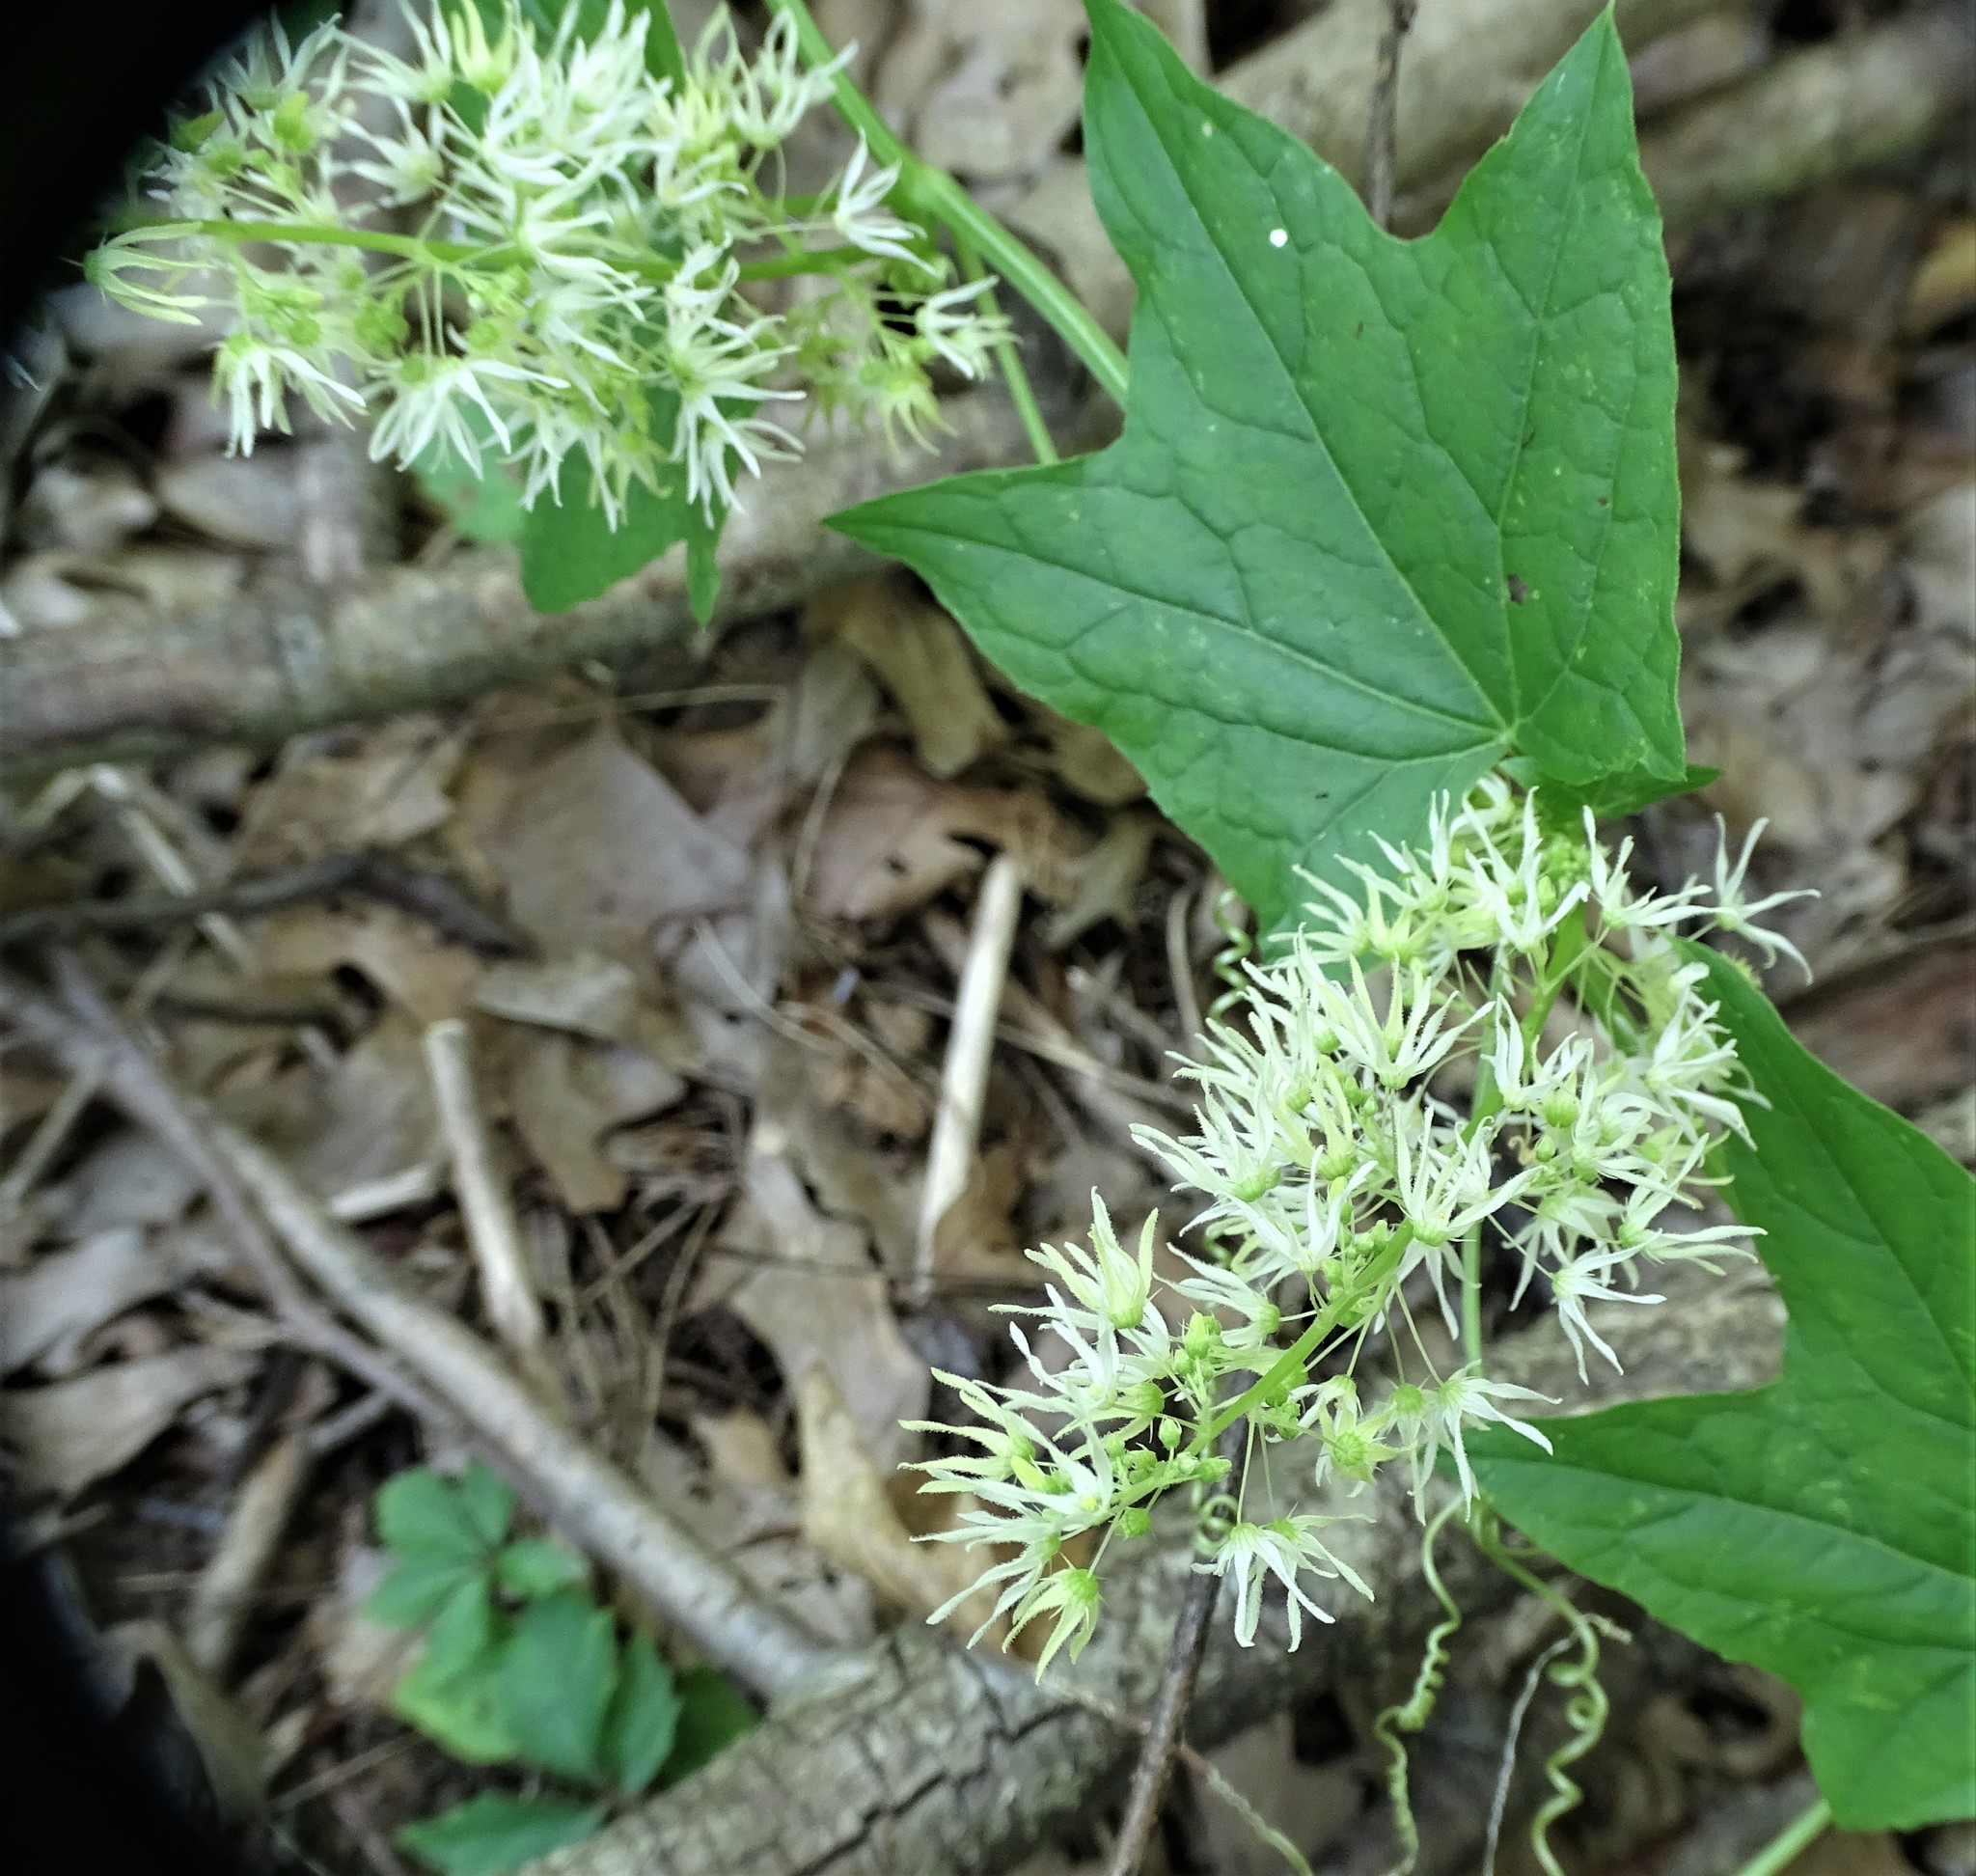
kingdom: Plantae
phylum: Tracheophyta
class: Magnoliopsida
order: Cucurbitales
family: Cucurbitaceae
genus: Echinocystis
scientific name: Echinocystis lobata
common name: Wild cucumber
